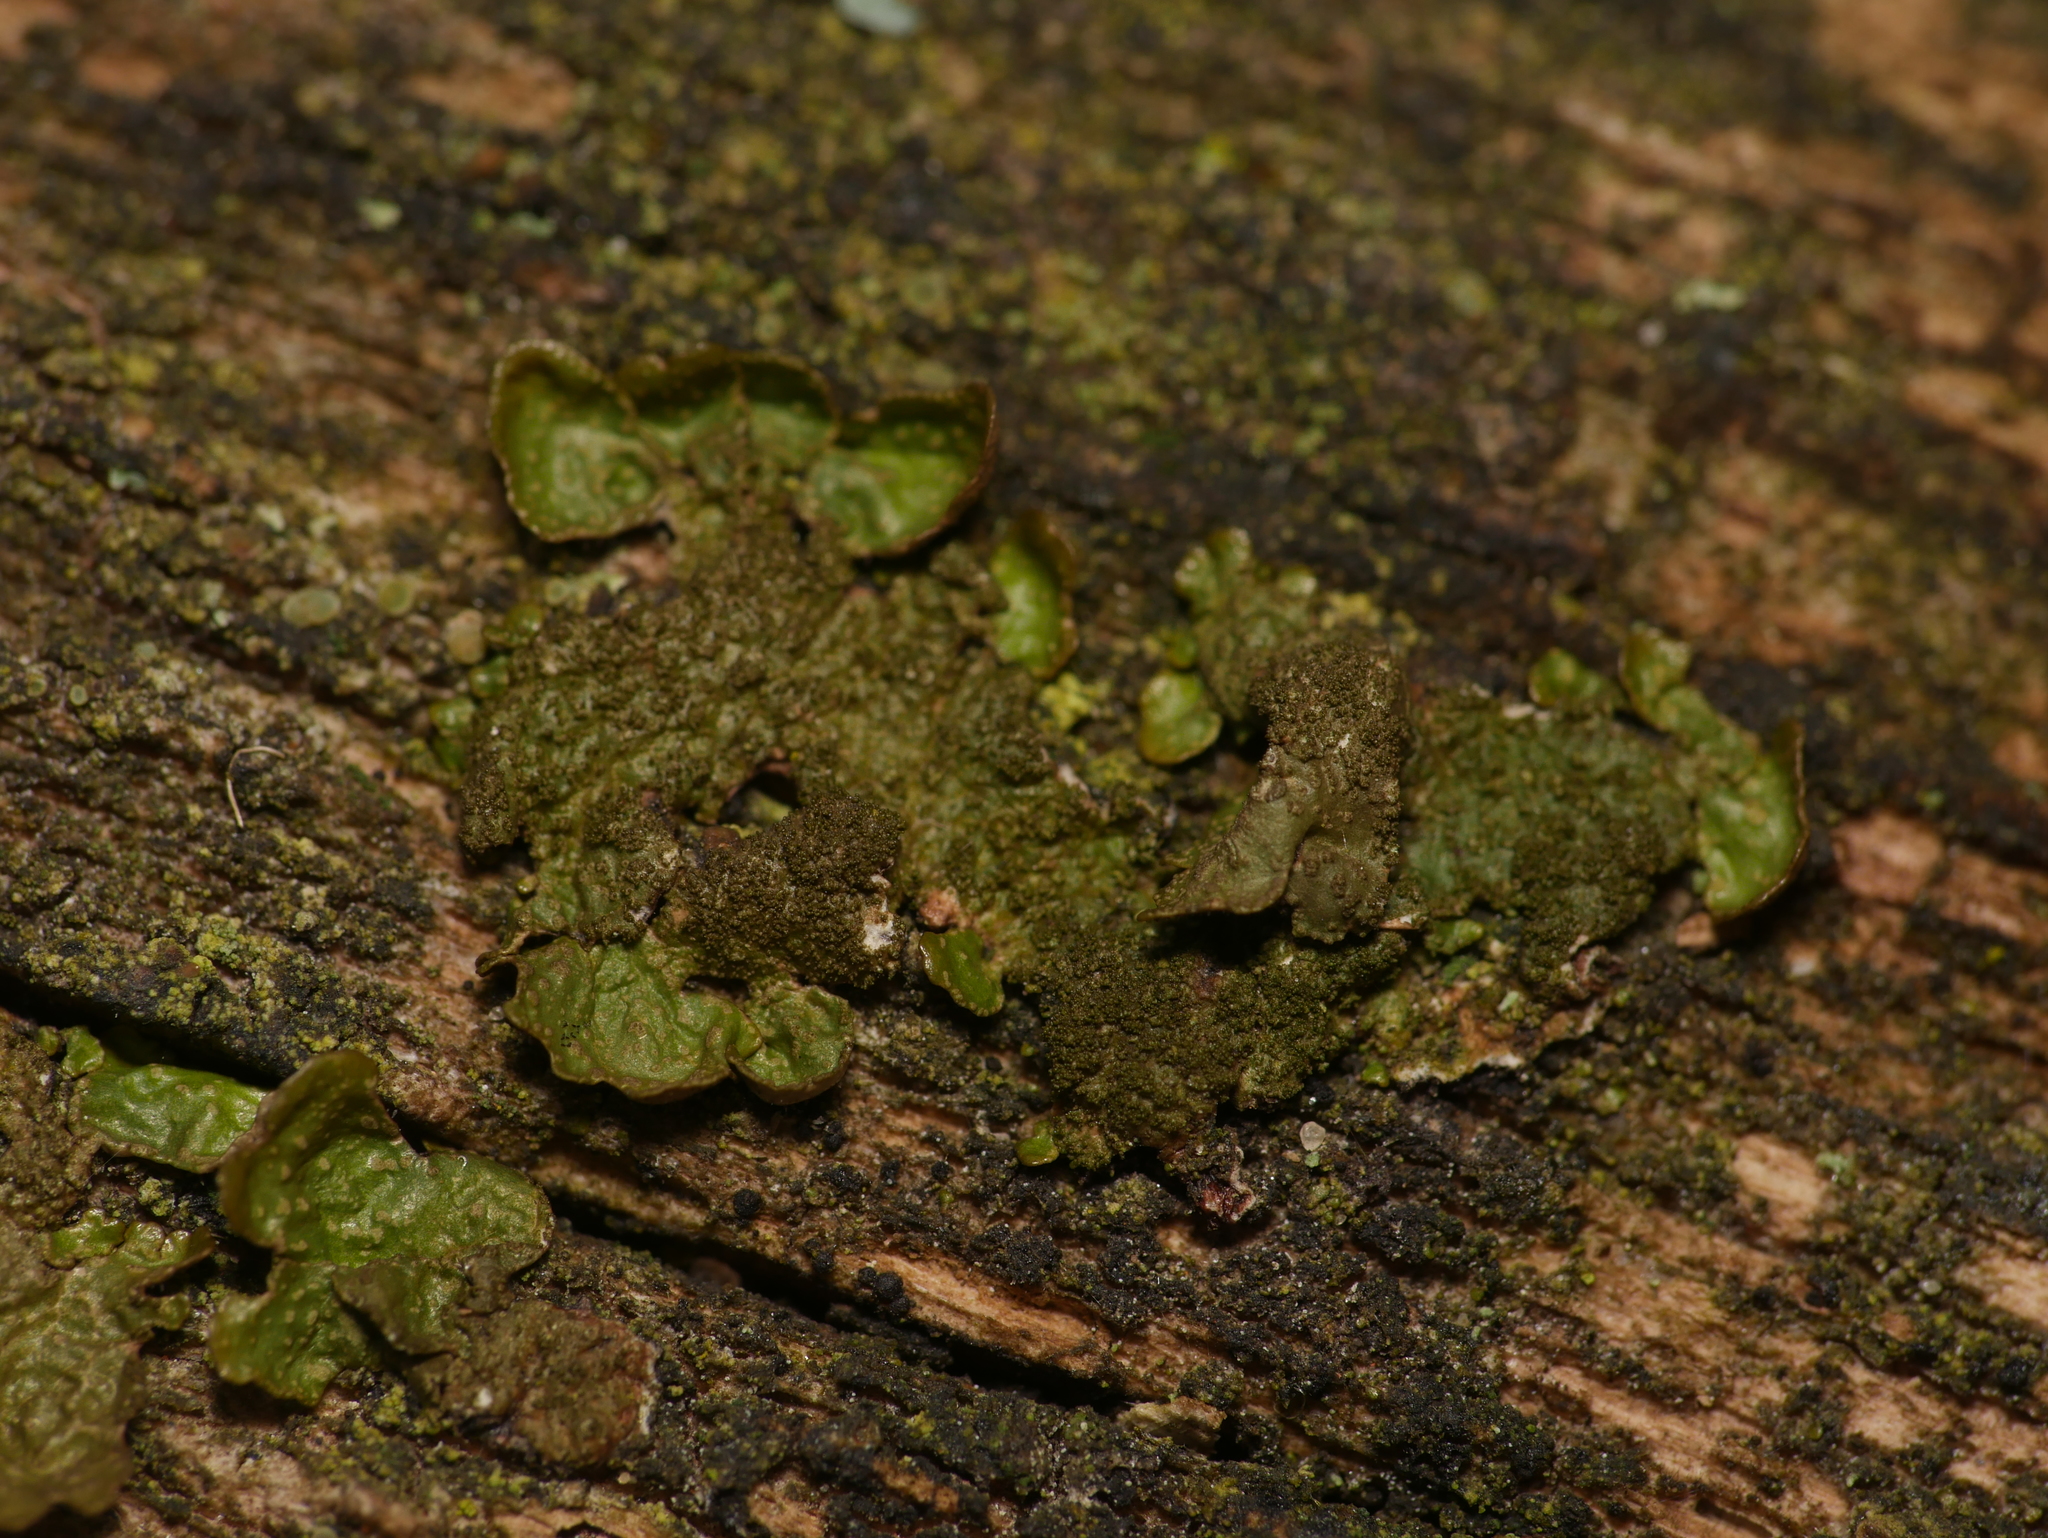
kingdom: Fungi
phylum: Ascomycota
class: Lecanoromycetes
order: Lecanorales
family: Parmeliaceae
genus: Melanelixia
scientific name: Melanelixia subaurifera
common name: Abraded camouflage lichen
